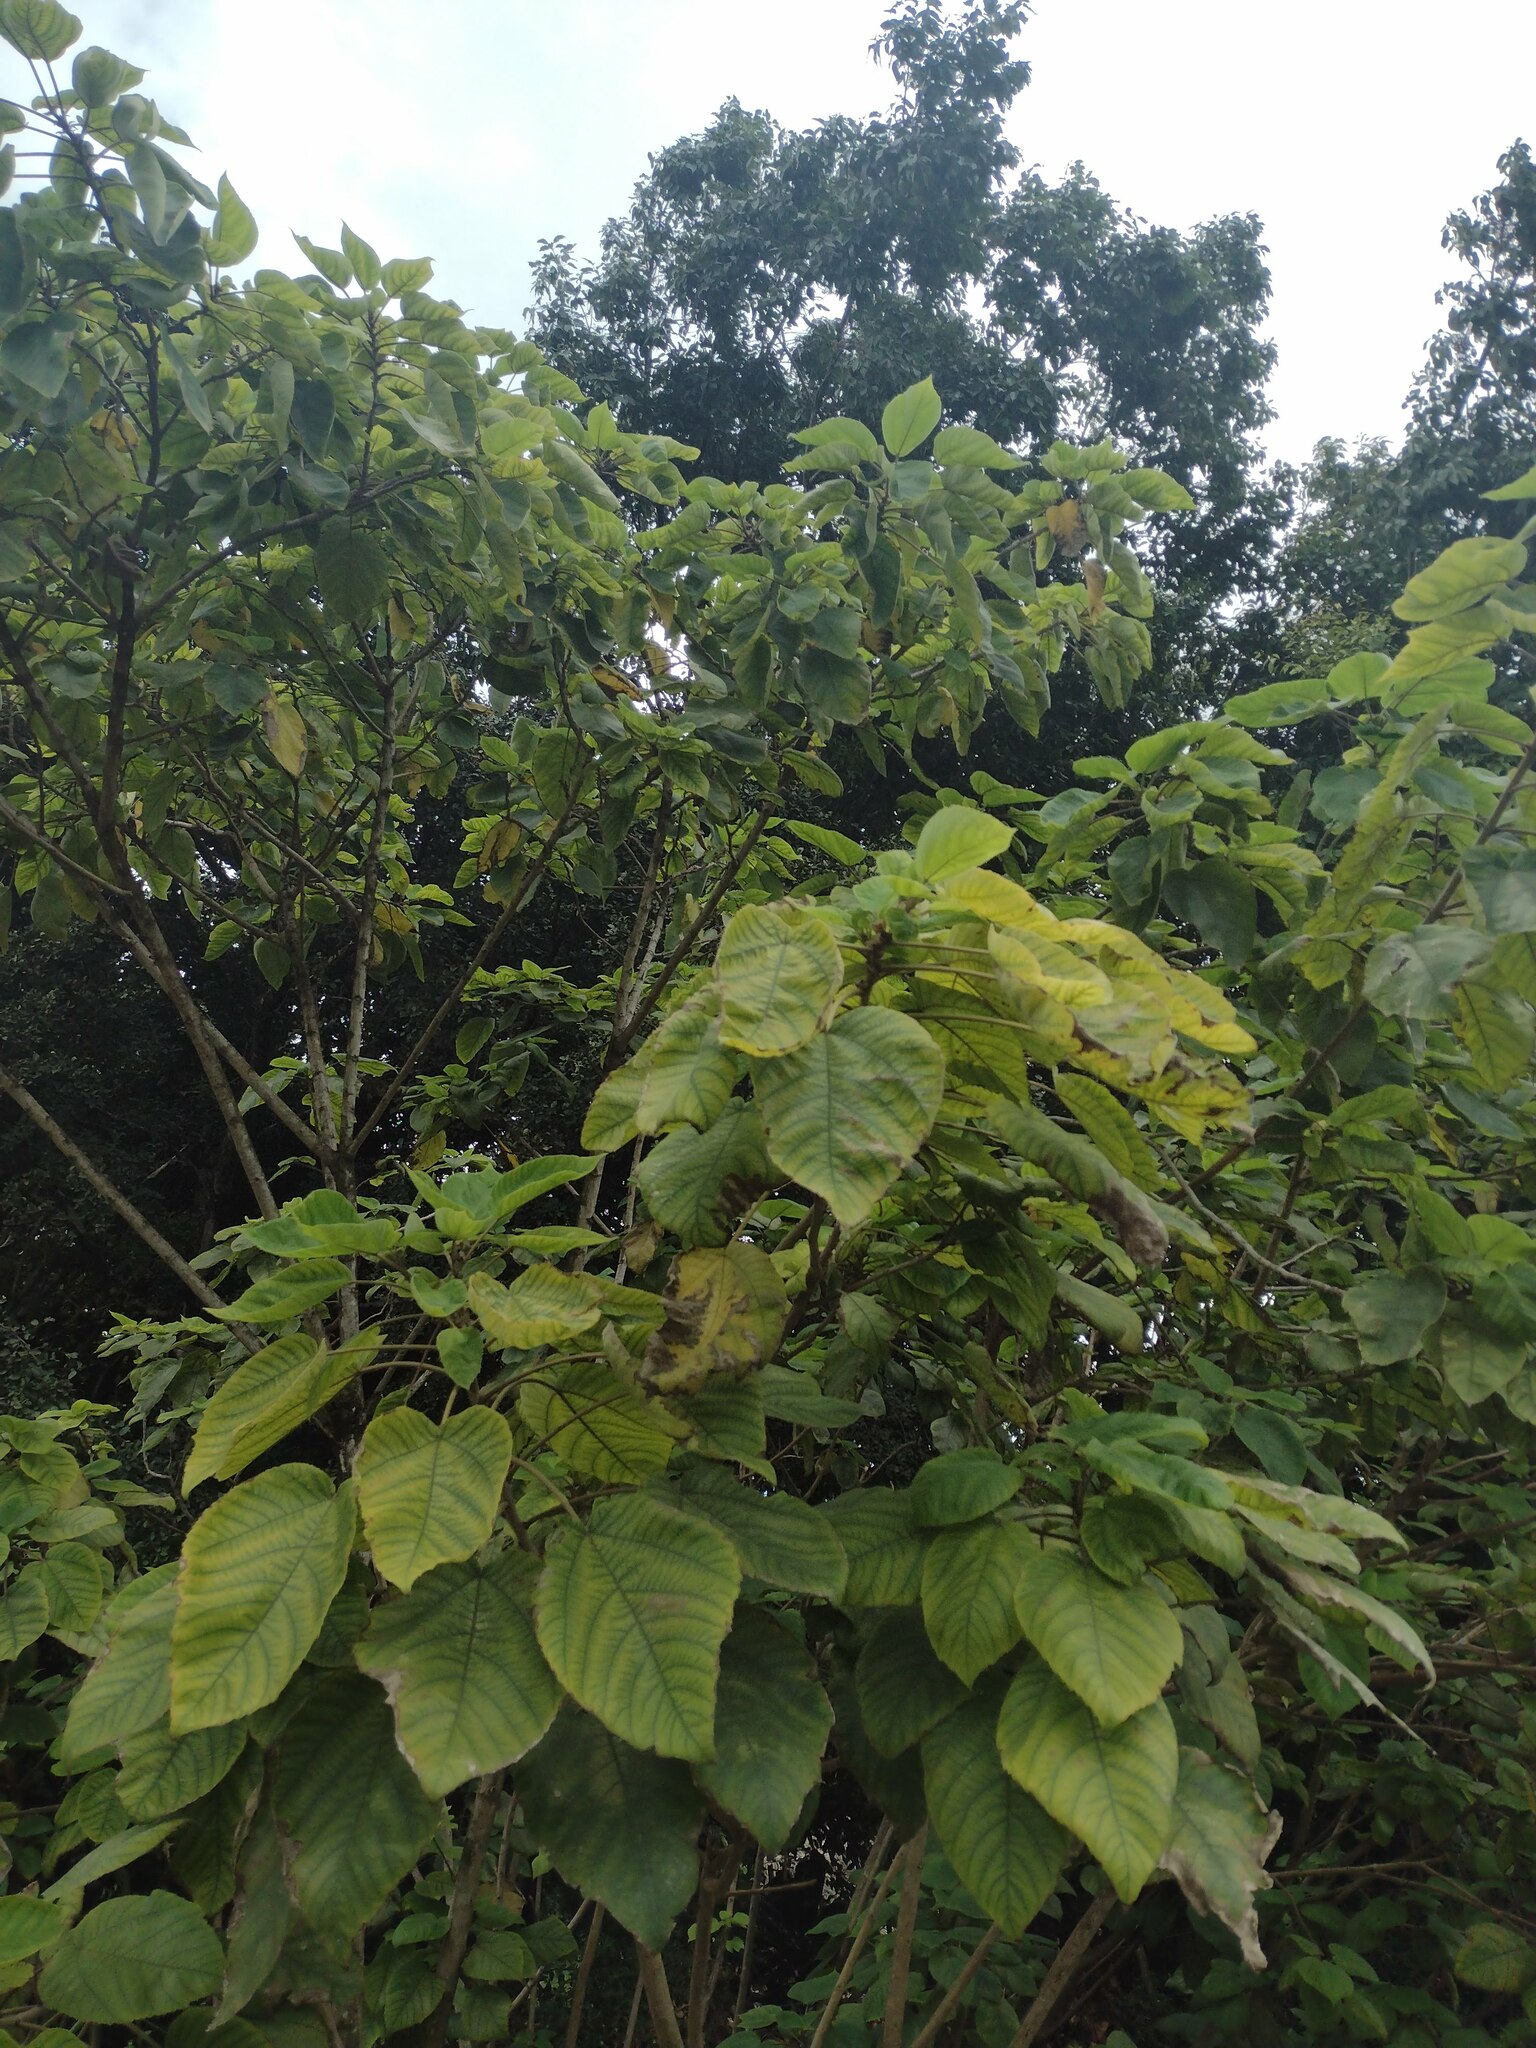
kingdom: Plantae
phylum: Tracheophyta
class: Magnoliopsida
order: Lamiales
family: Lamiaceae
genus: Clerodendrum
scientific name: Clerodendrum macrostegium
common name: Velvetleaf glorybower
